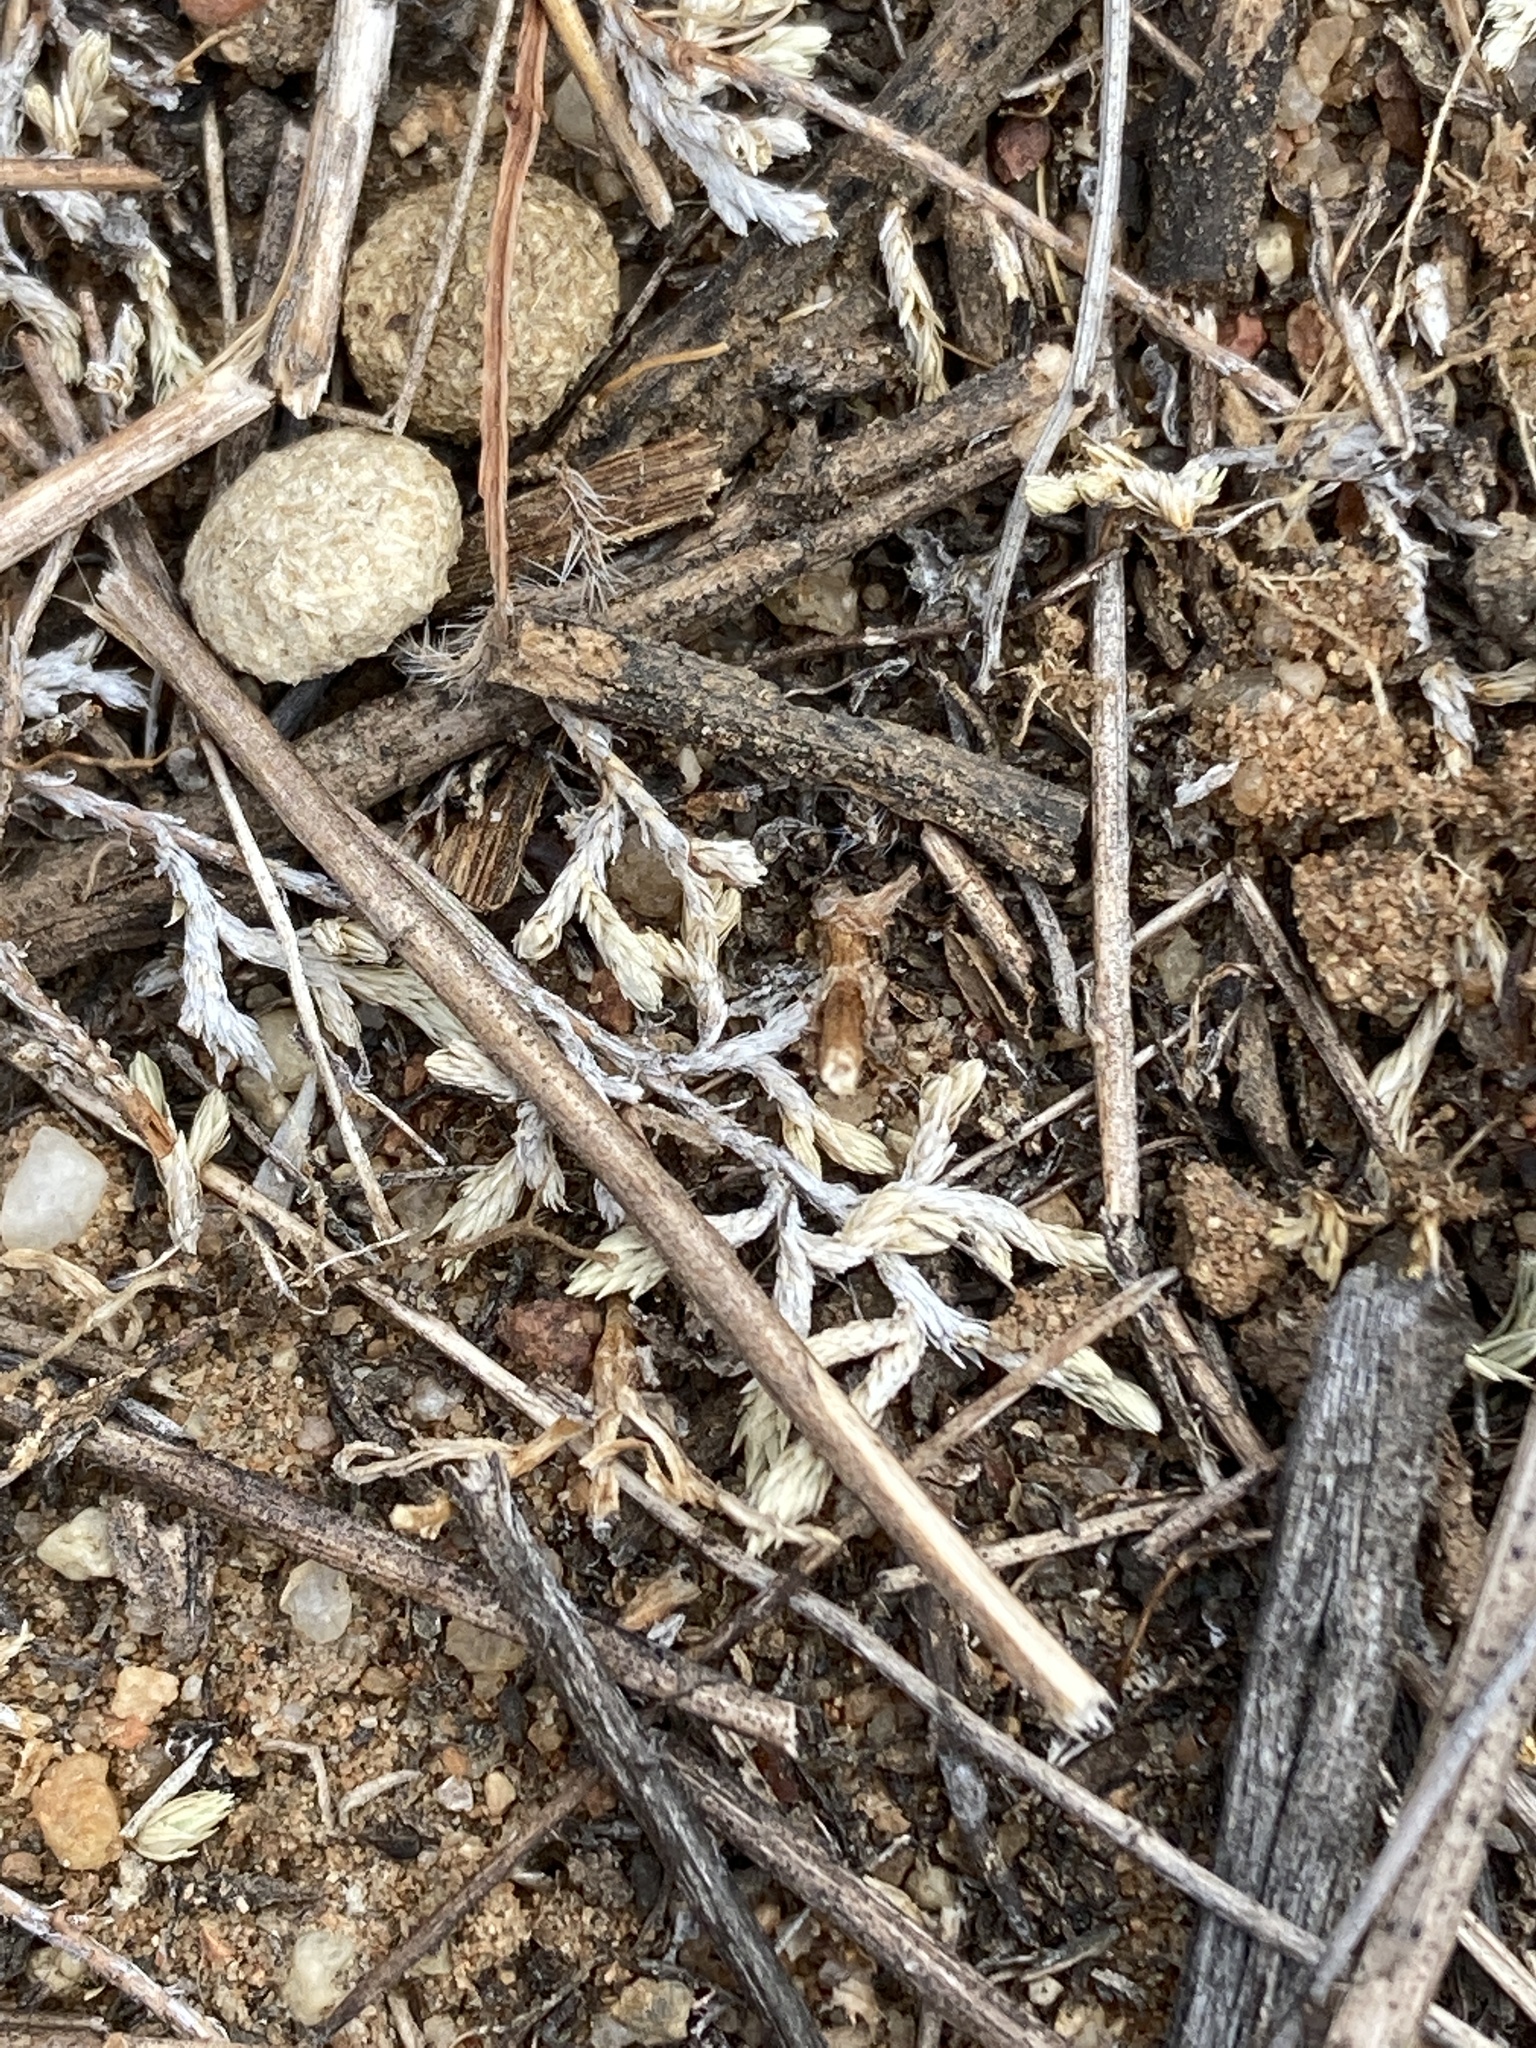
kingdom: Plantae
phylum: Tracheophyta
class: Lycopodiopsida
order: Selaginellales
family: Selaginellaceae
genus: Selaginella
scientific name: Selaginella cinerascens
